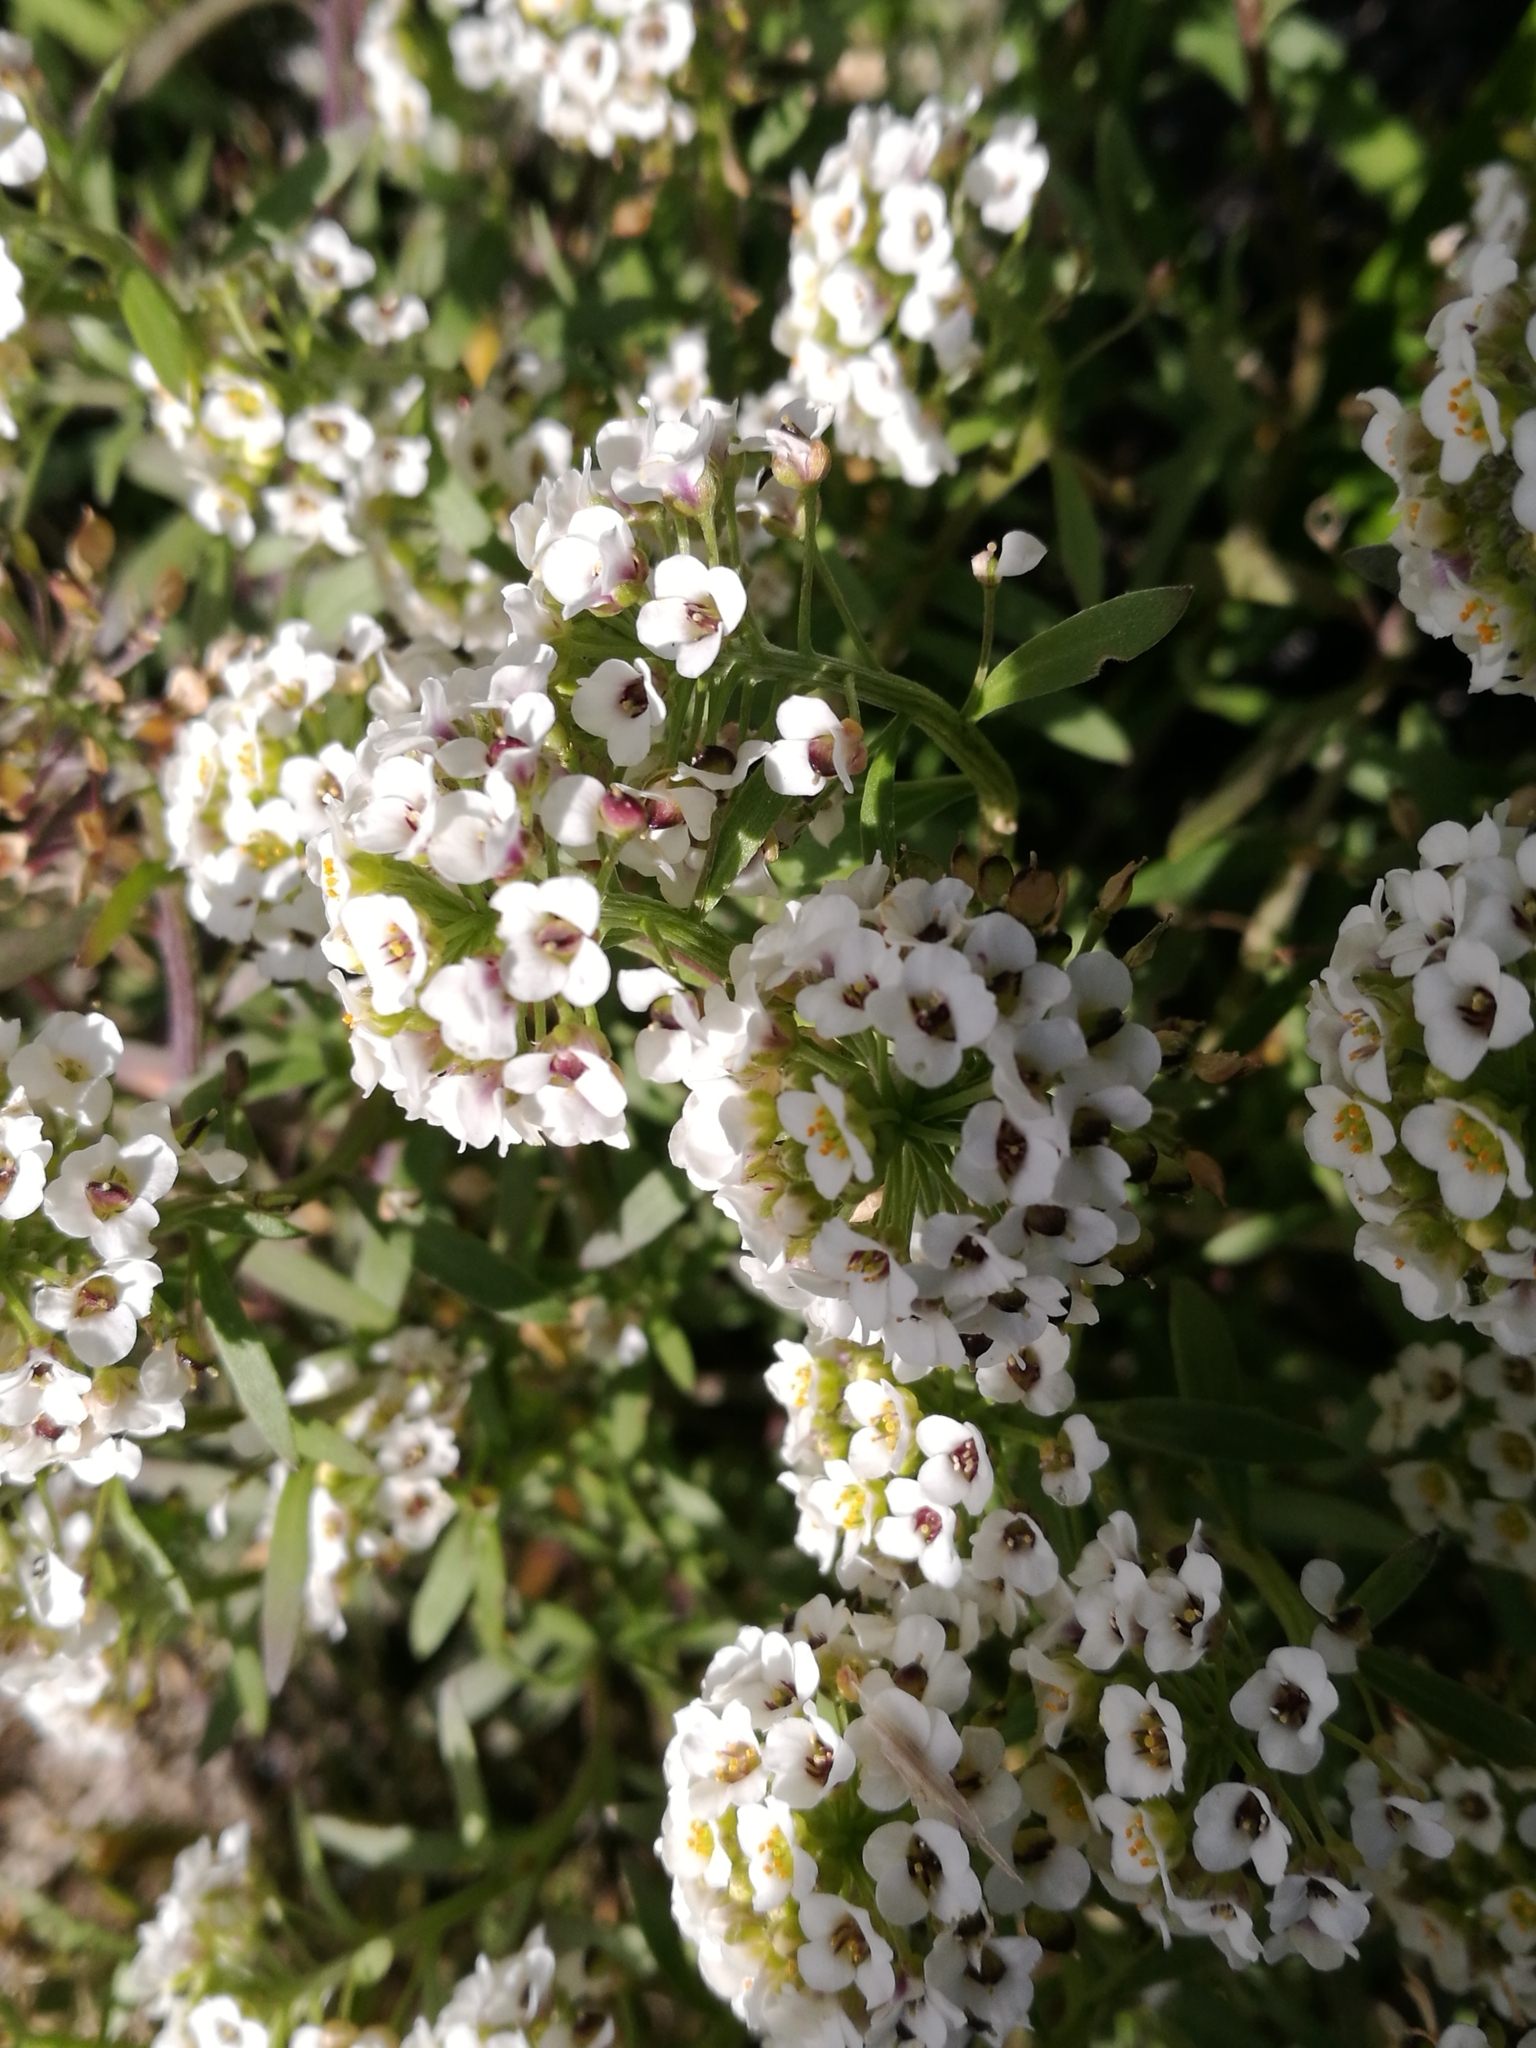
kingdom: Plantae
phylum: Tracheophyta
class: Magnoliopsida
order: Brassicales
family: Brassicaceae
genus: Lobularia
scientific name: Lobularia maritima
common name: Sweet alison
